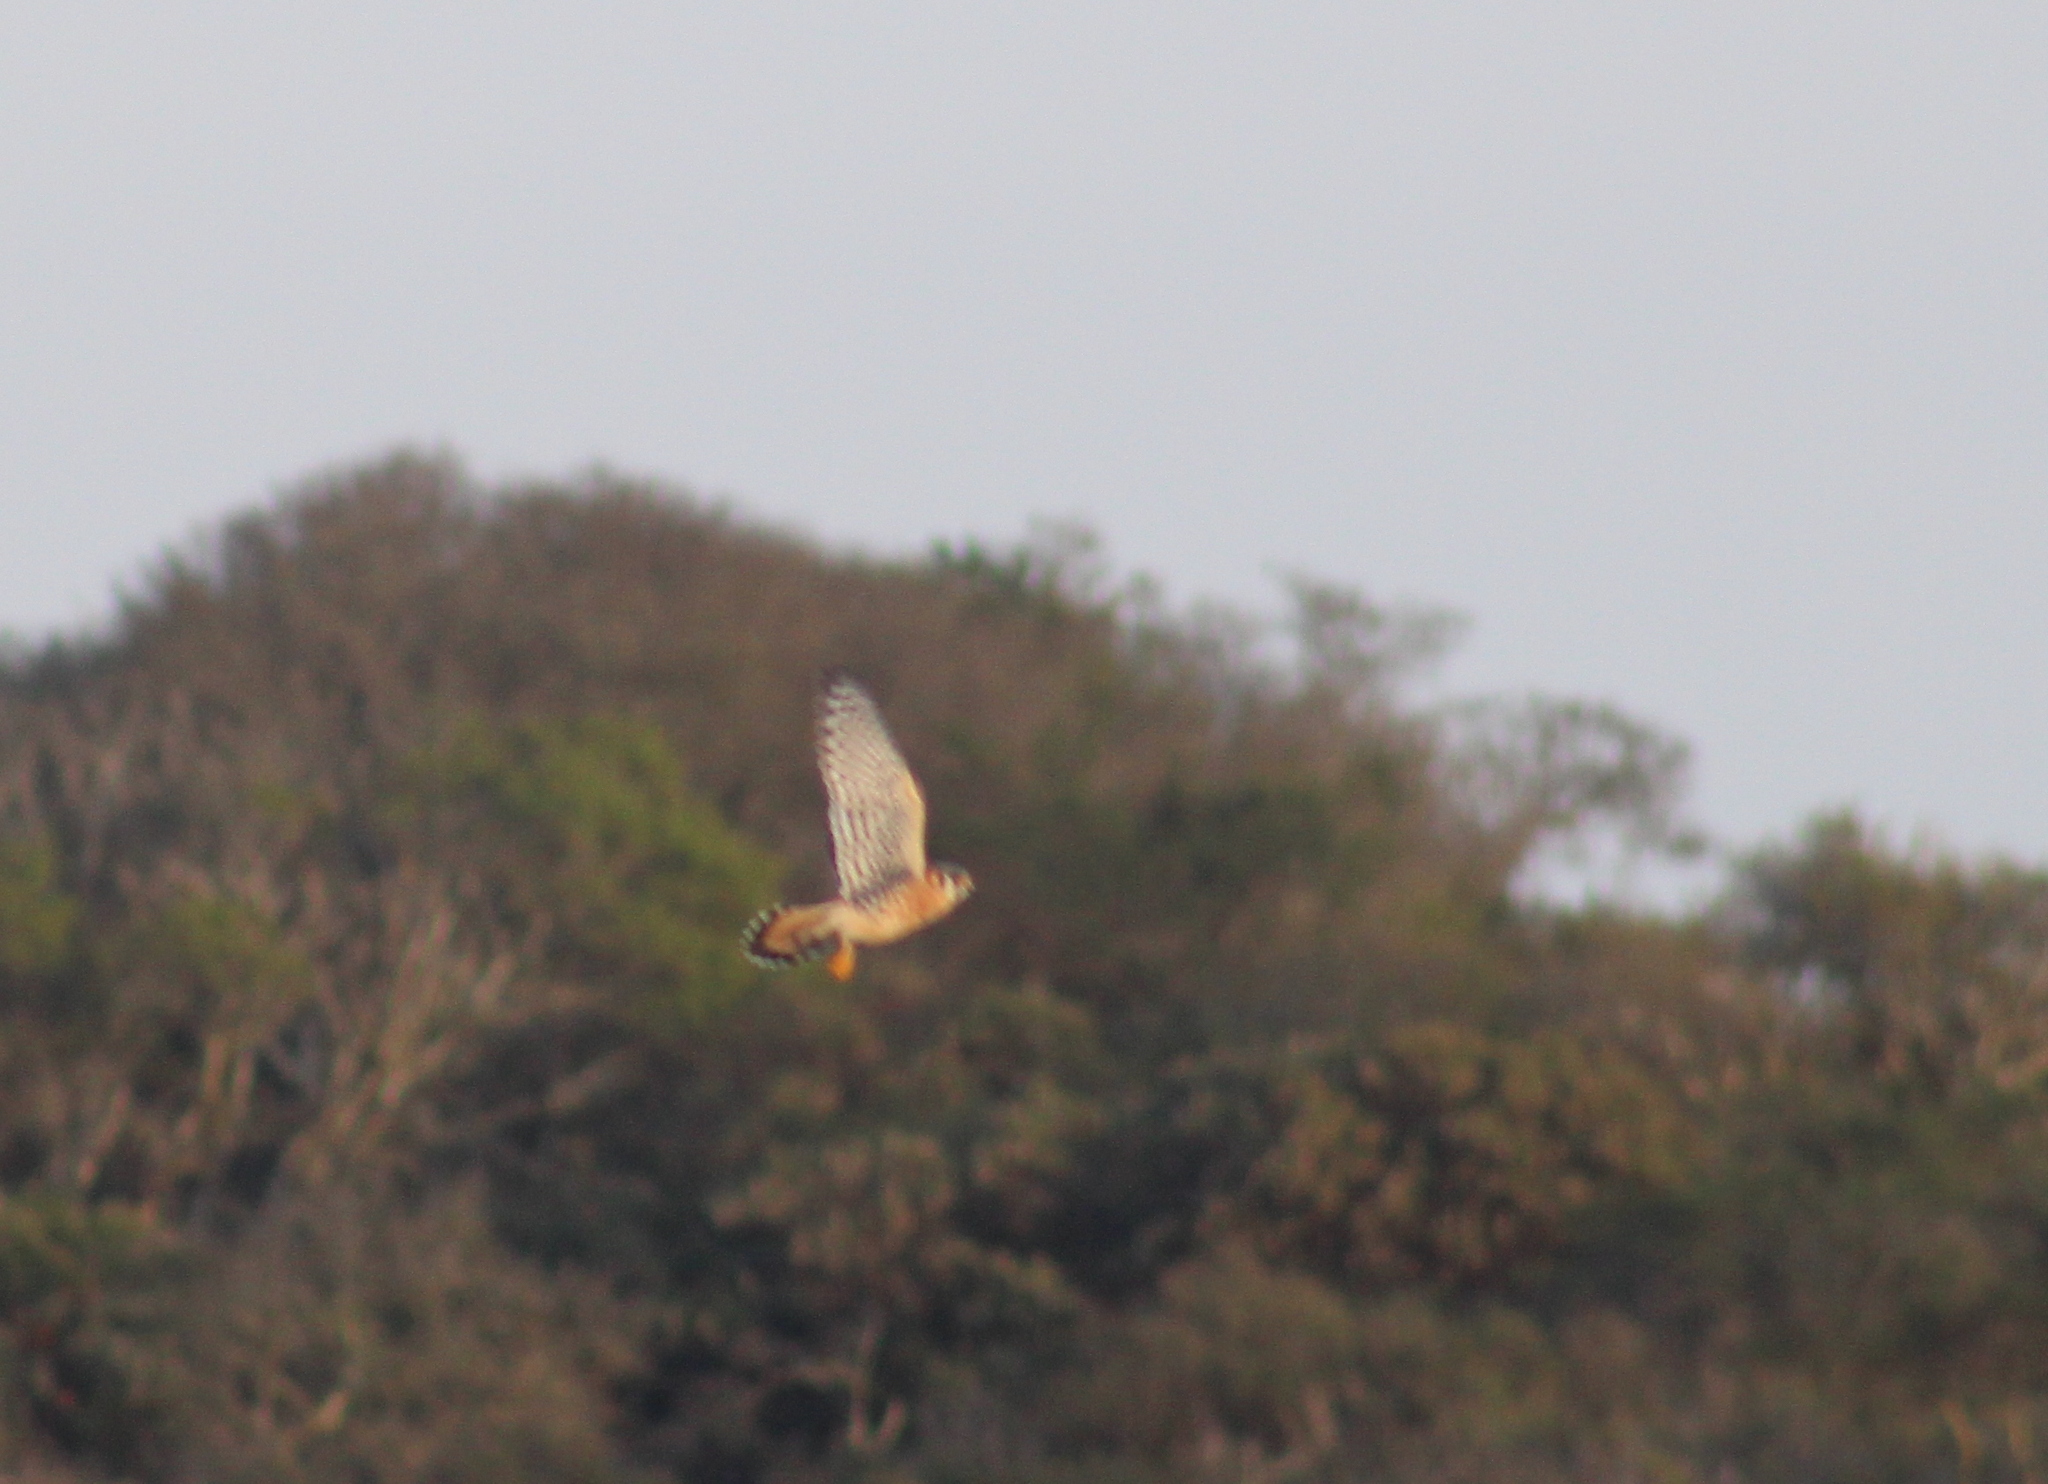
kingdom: Animalia
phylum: Chordata
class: Aves
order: Falconiformes
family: Falconidae
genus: Falco
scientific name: Falco sparverius
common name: American kestrel
